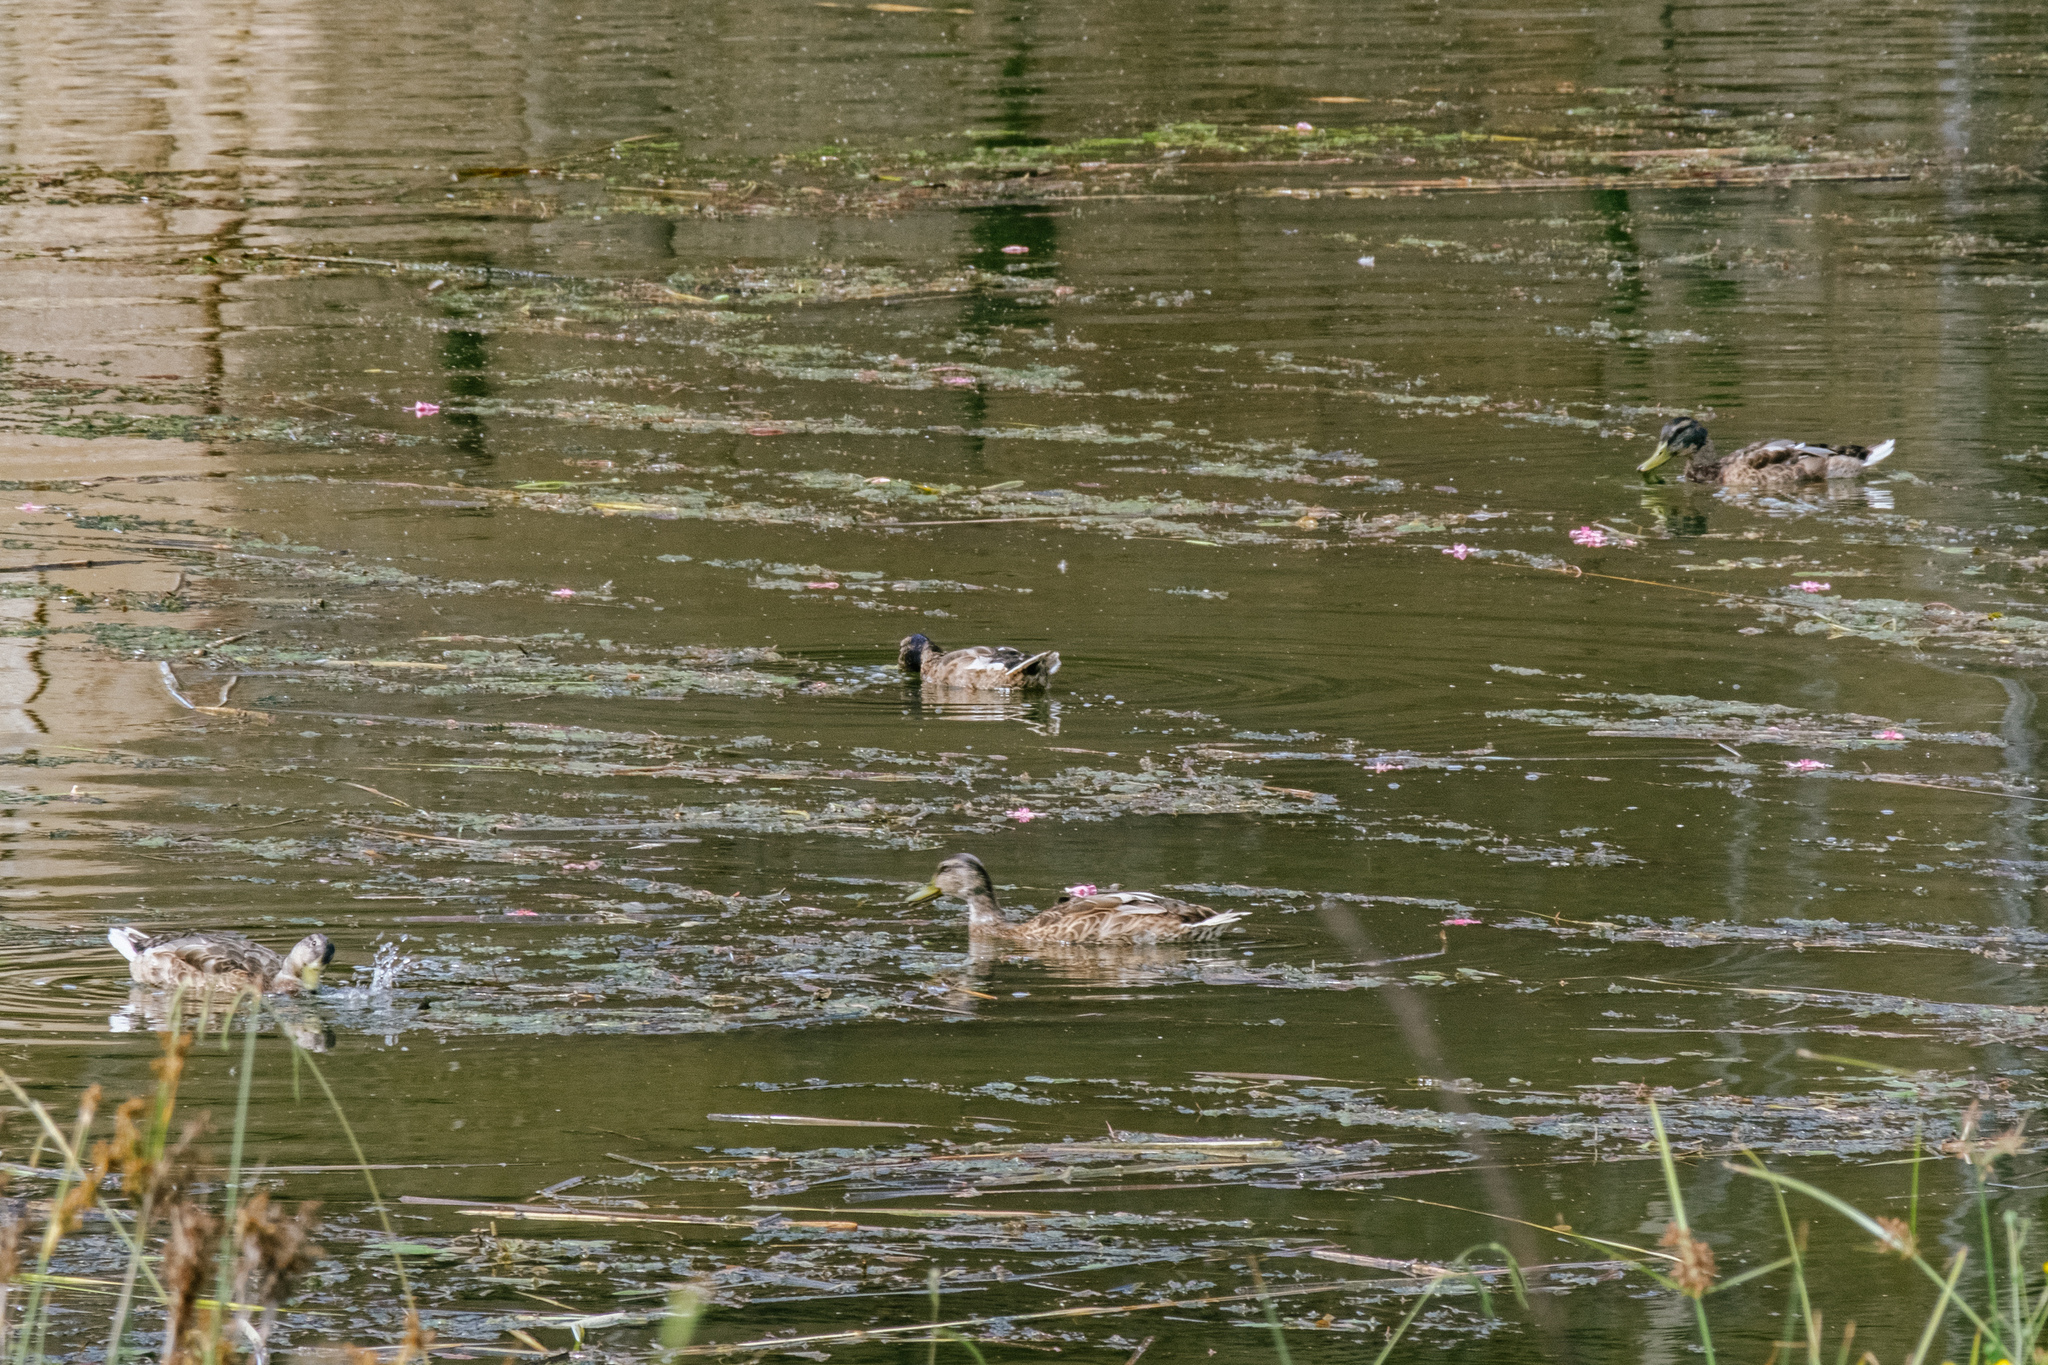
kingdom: Animalia
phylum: Chordata
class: Aves
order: Anseriformes
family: Anatidae
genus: Anas
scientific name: Anas platyrhynchos
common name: Mallard
